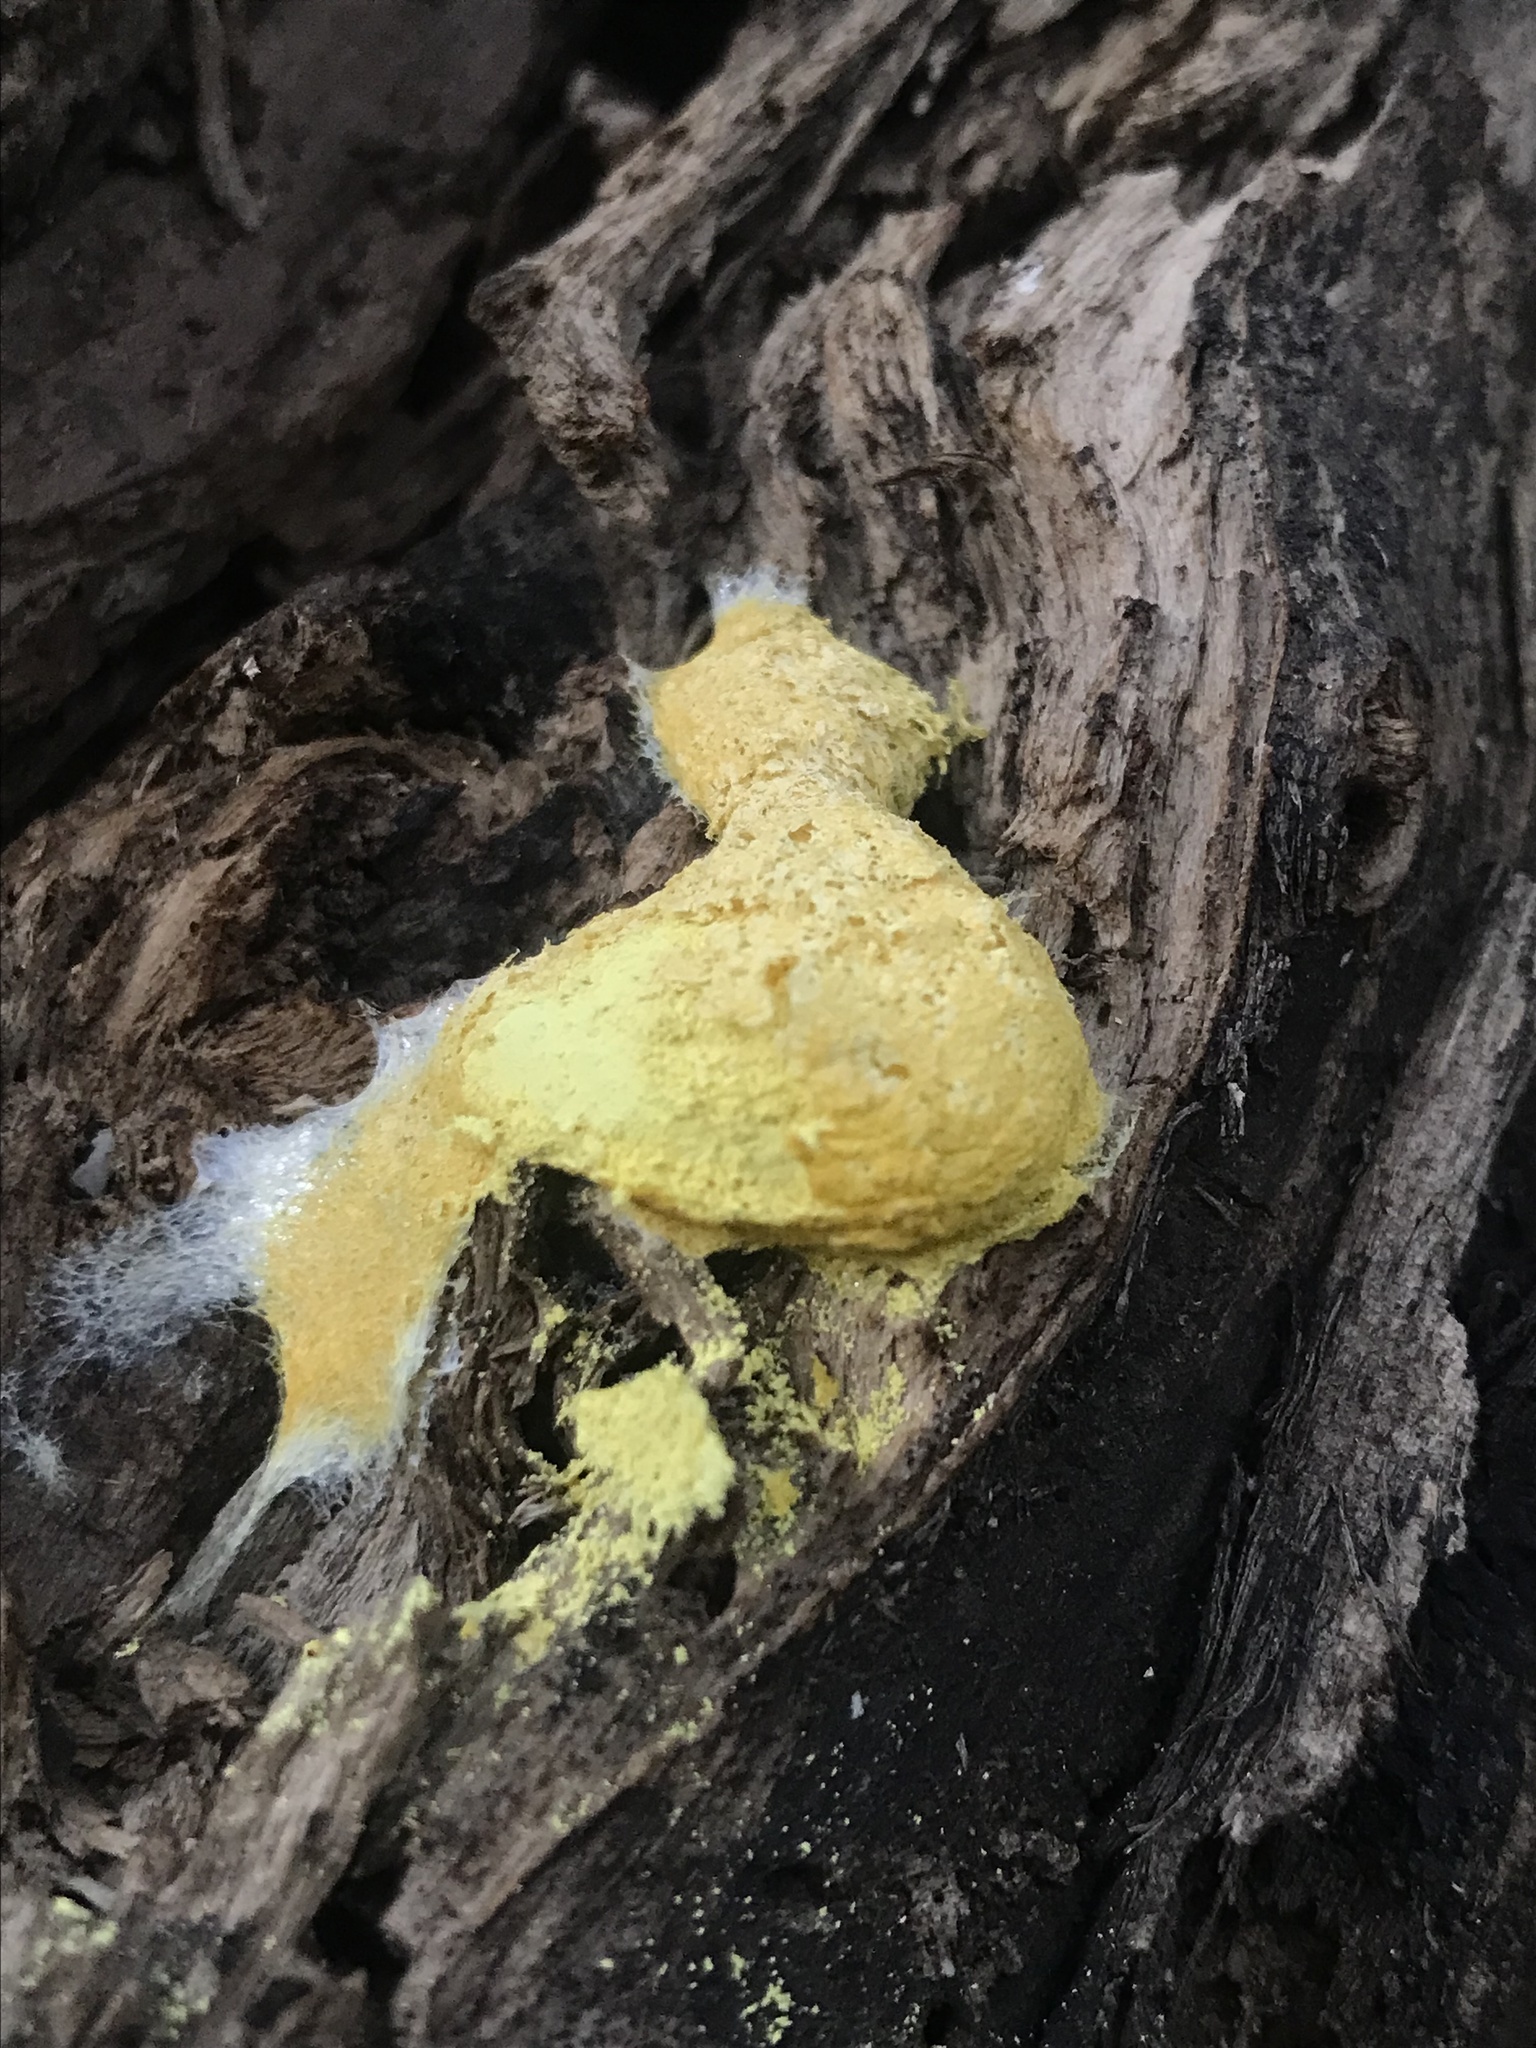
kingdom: Protozoa
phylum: Mycetozoa
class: Myxomycetes
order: Physarales
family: Physaraceae
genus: Fuligo
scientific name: Fuligo septica
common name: Dog vomit slime mold
